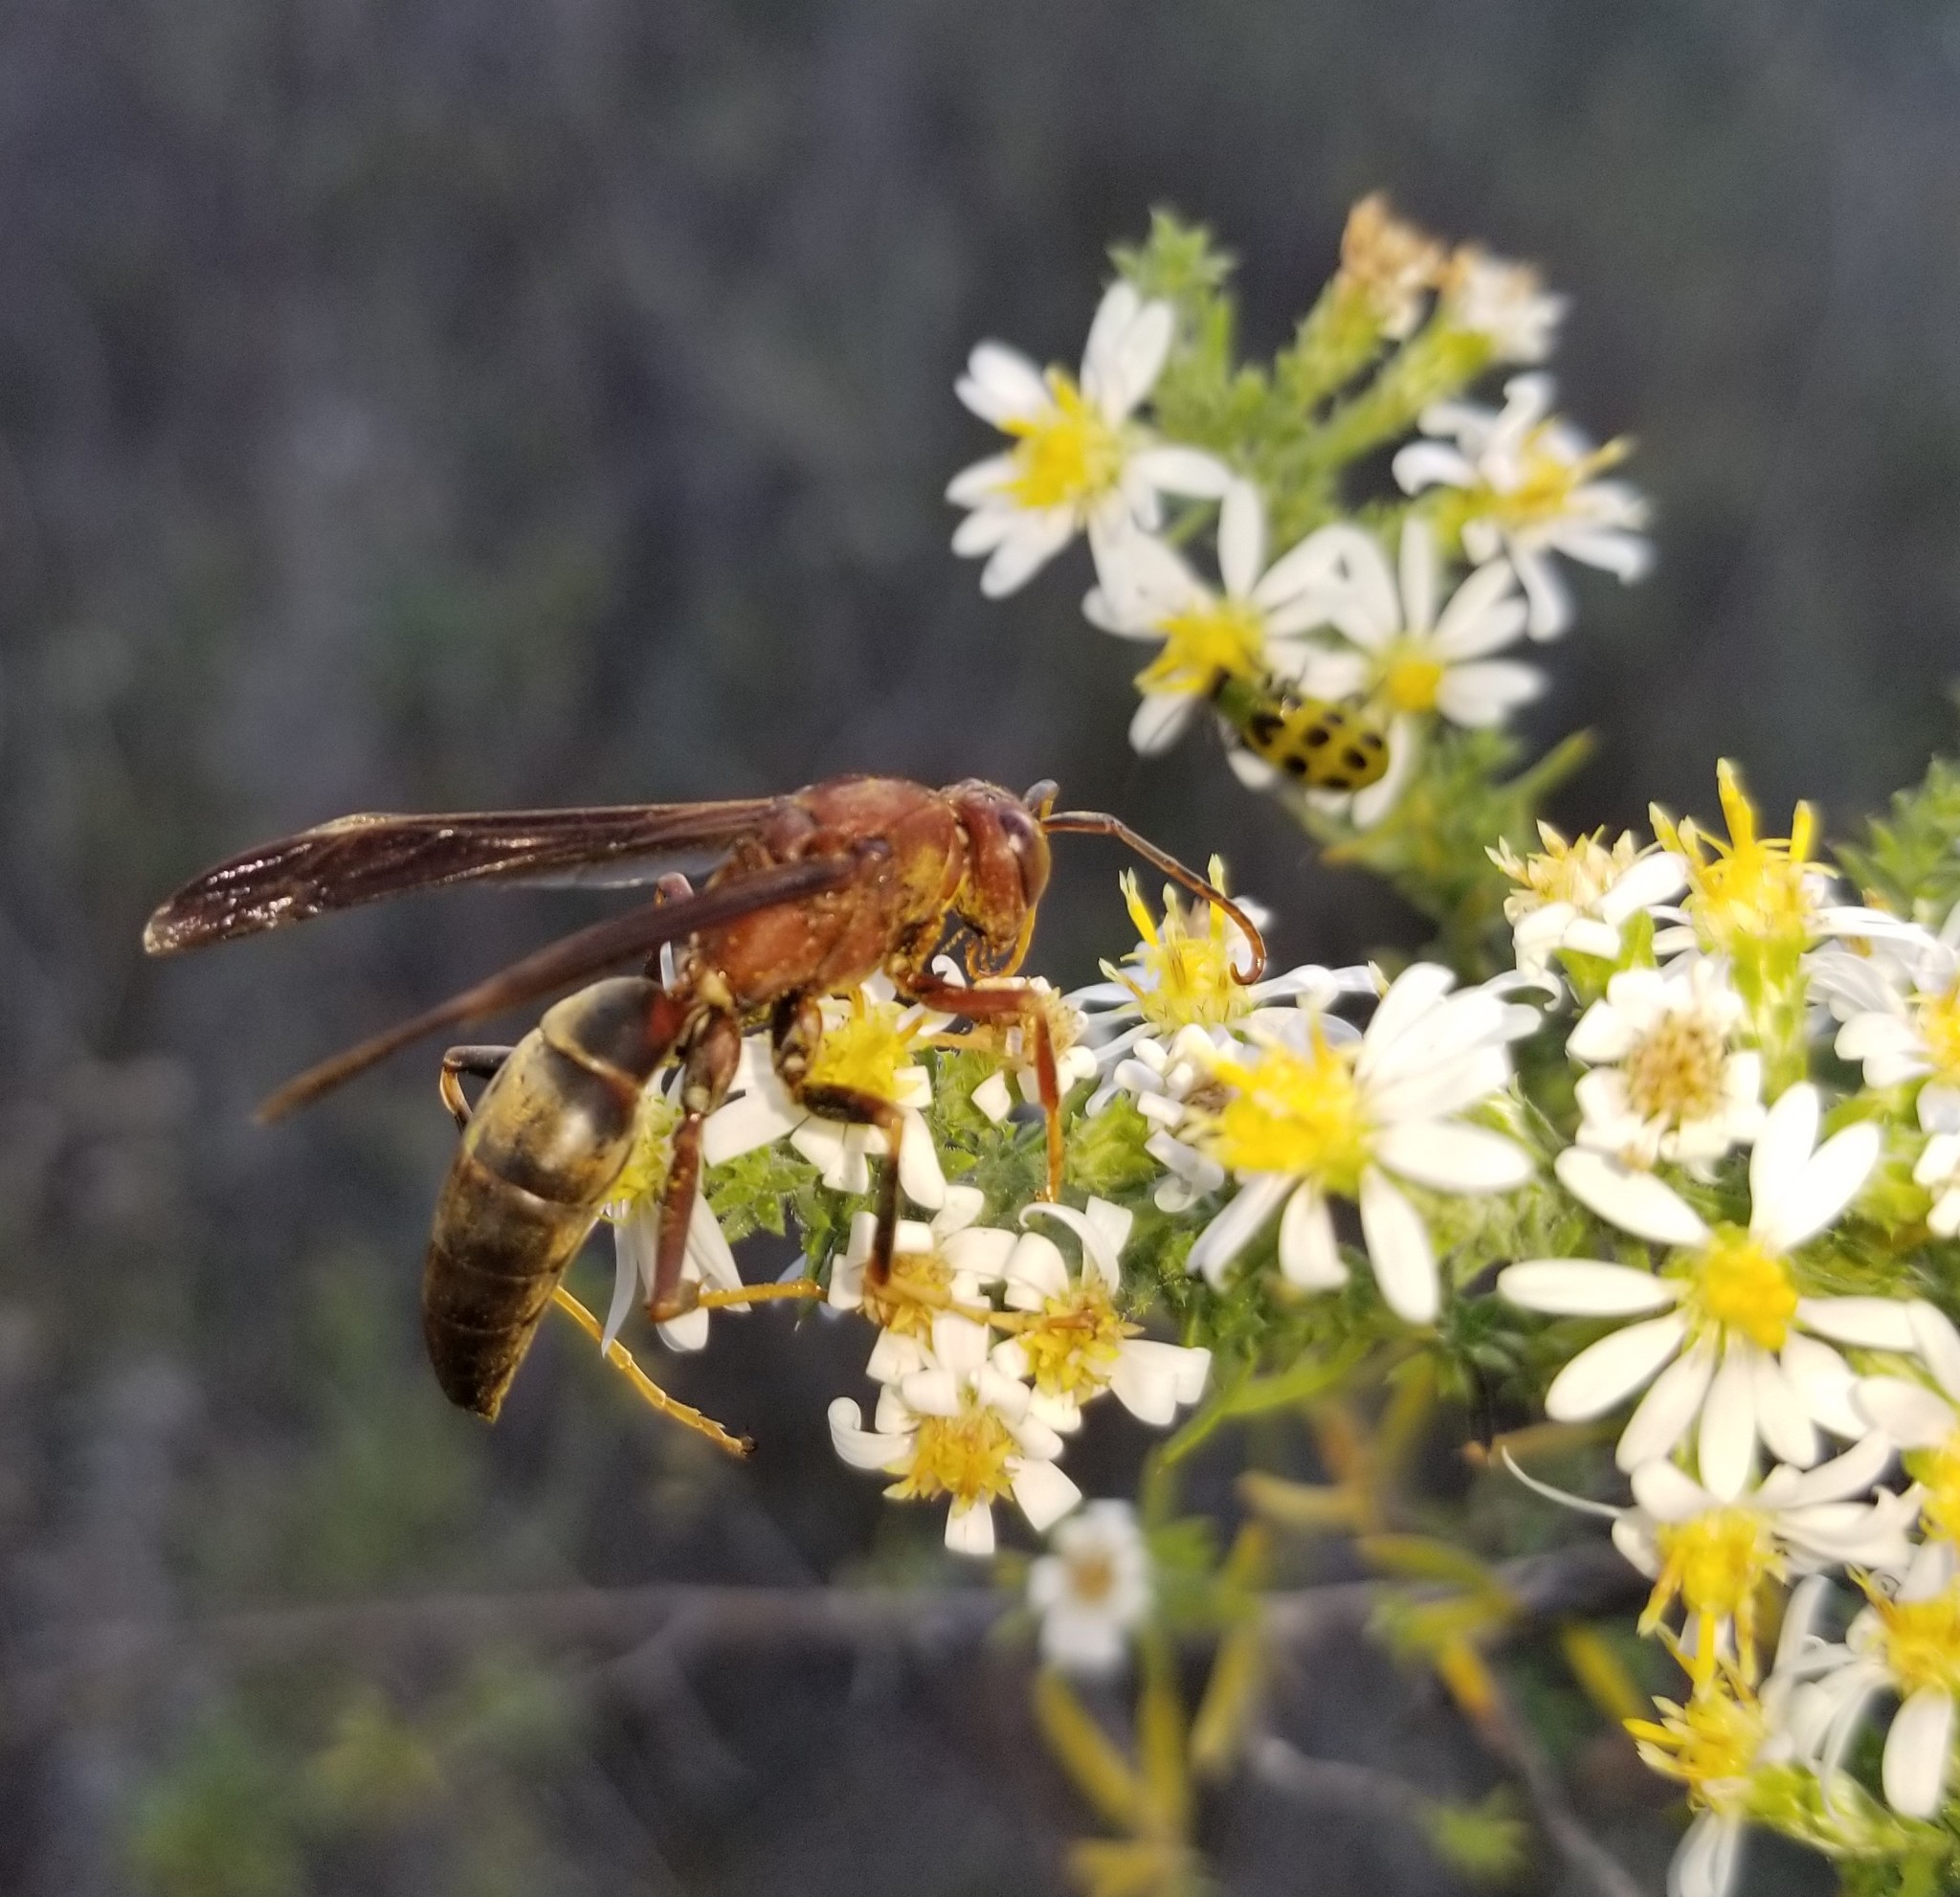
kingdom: Animalia
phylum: Arthropoda
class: Insecta
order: Hymenoptera
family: Eumenidae
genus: Polistes
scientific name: Polistes metricus
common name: Metric paper wasp
